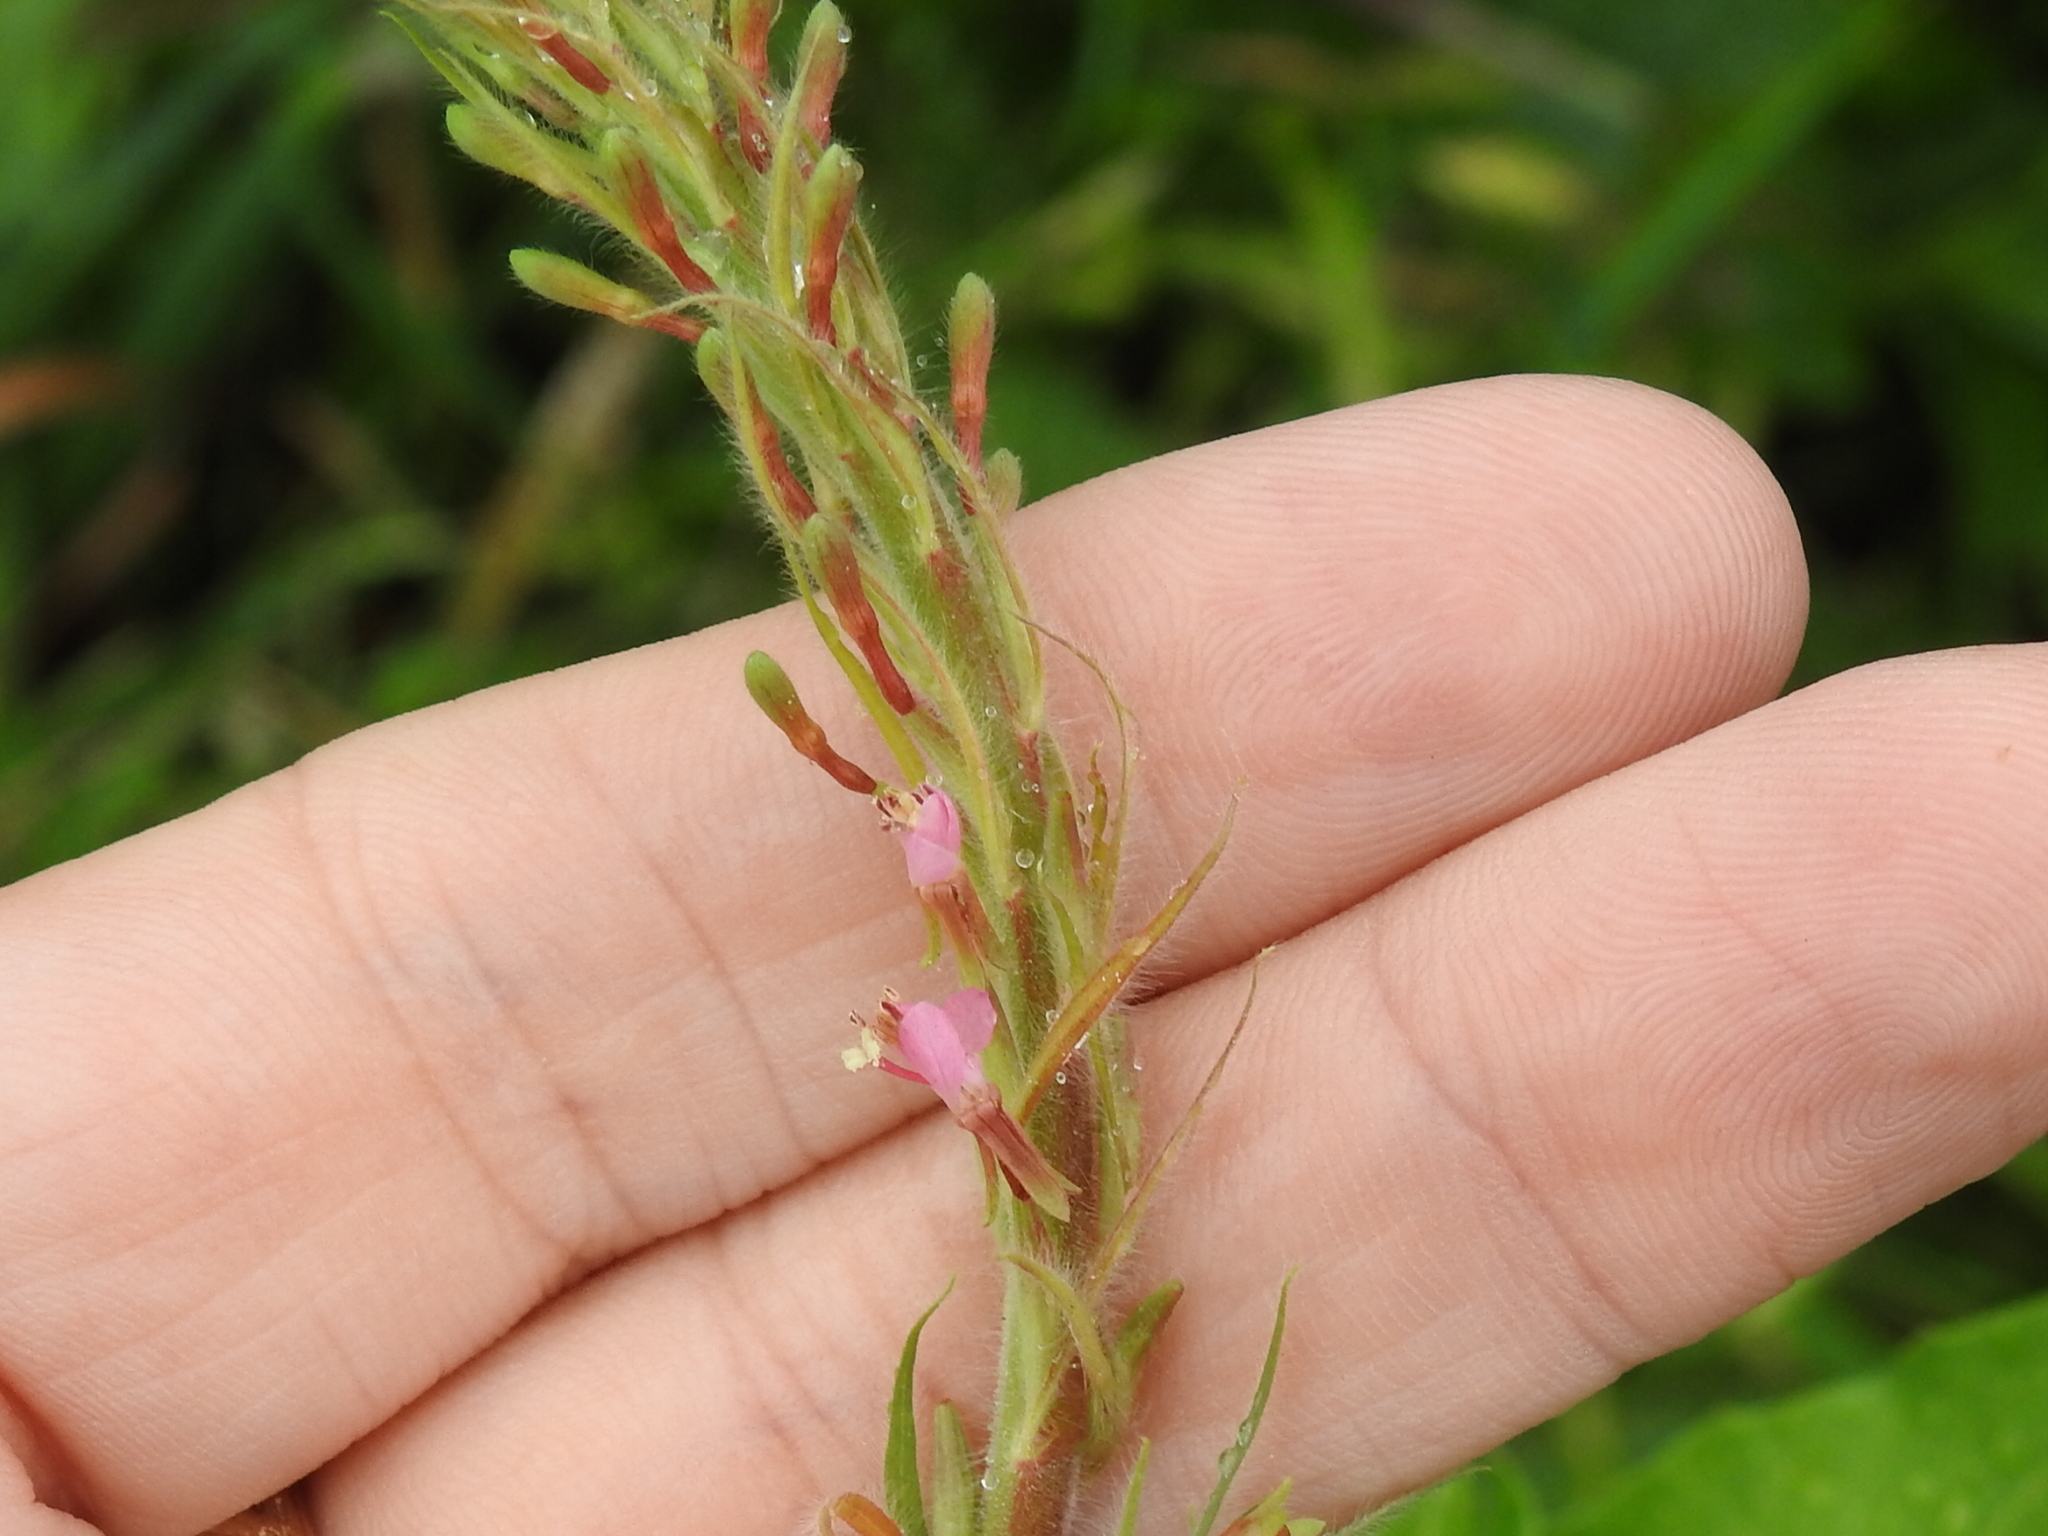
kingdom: Plantae
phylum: Tracheophyta
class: Magnoliopsida
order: Myrtales
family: Onagraceae
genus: Oenothera
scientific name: Oenothera curtiflora
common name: Velvetweed
